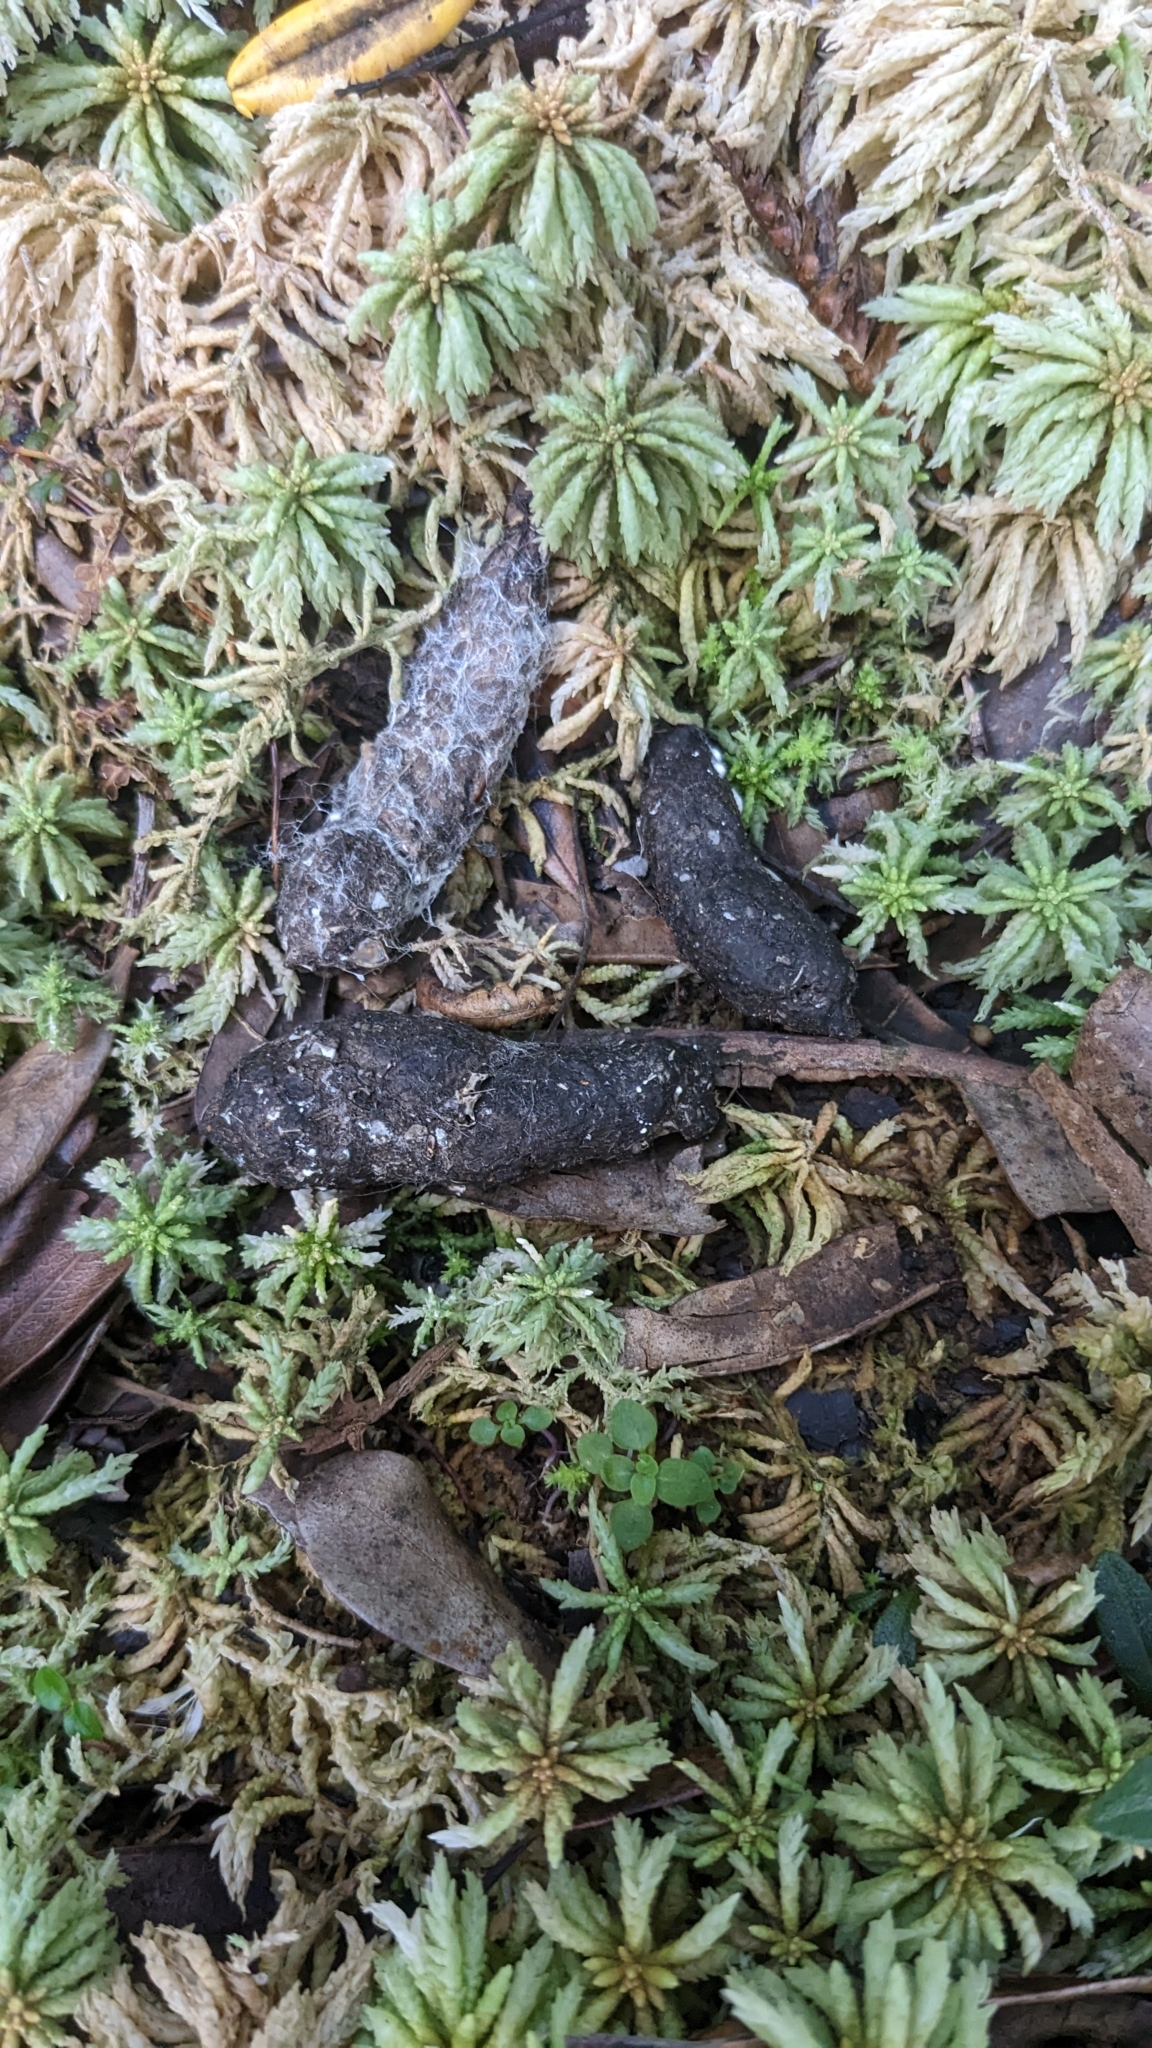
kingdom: Animalia
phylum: Chordata
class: Mammalia
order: Carnivora
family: Felidae
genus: Felis
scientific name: Felis catus
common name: Domestic cat
